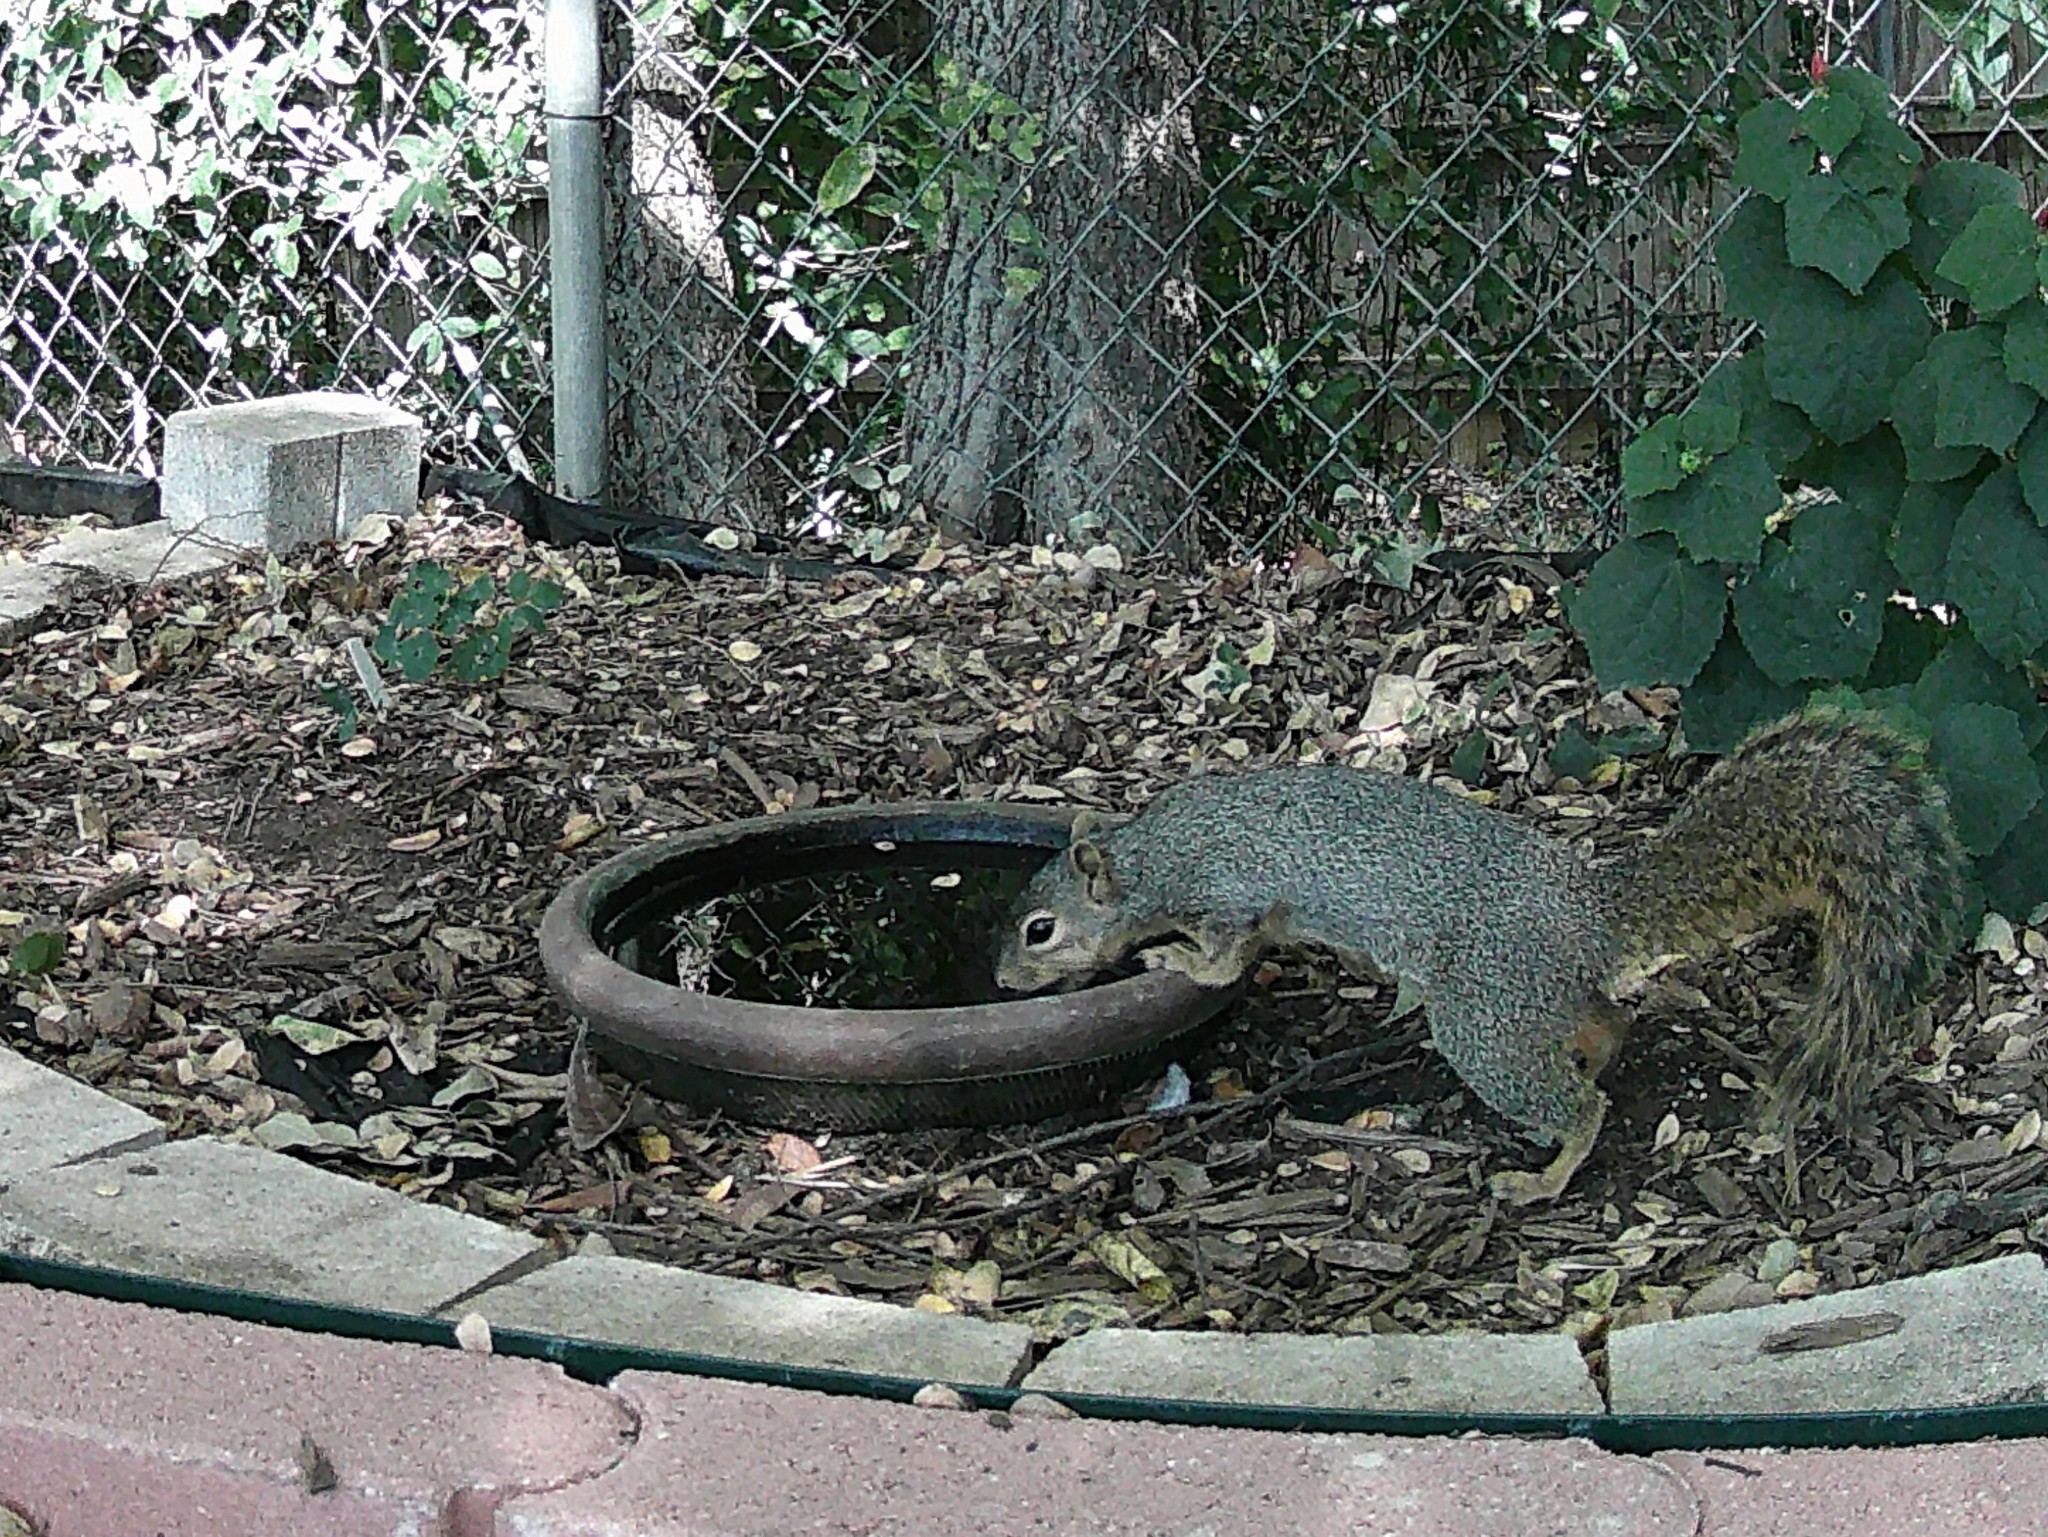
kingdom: Animalia
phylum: Chordata
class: Mammalia
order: Rodentia
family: Sciuridae
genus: Sciurus
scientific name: Sciurus niger
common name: Fox squirrel
